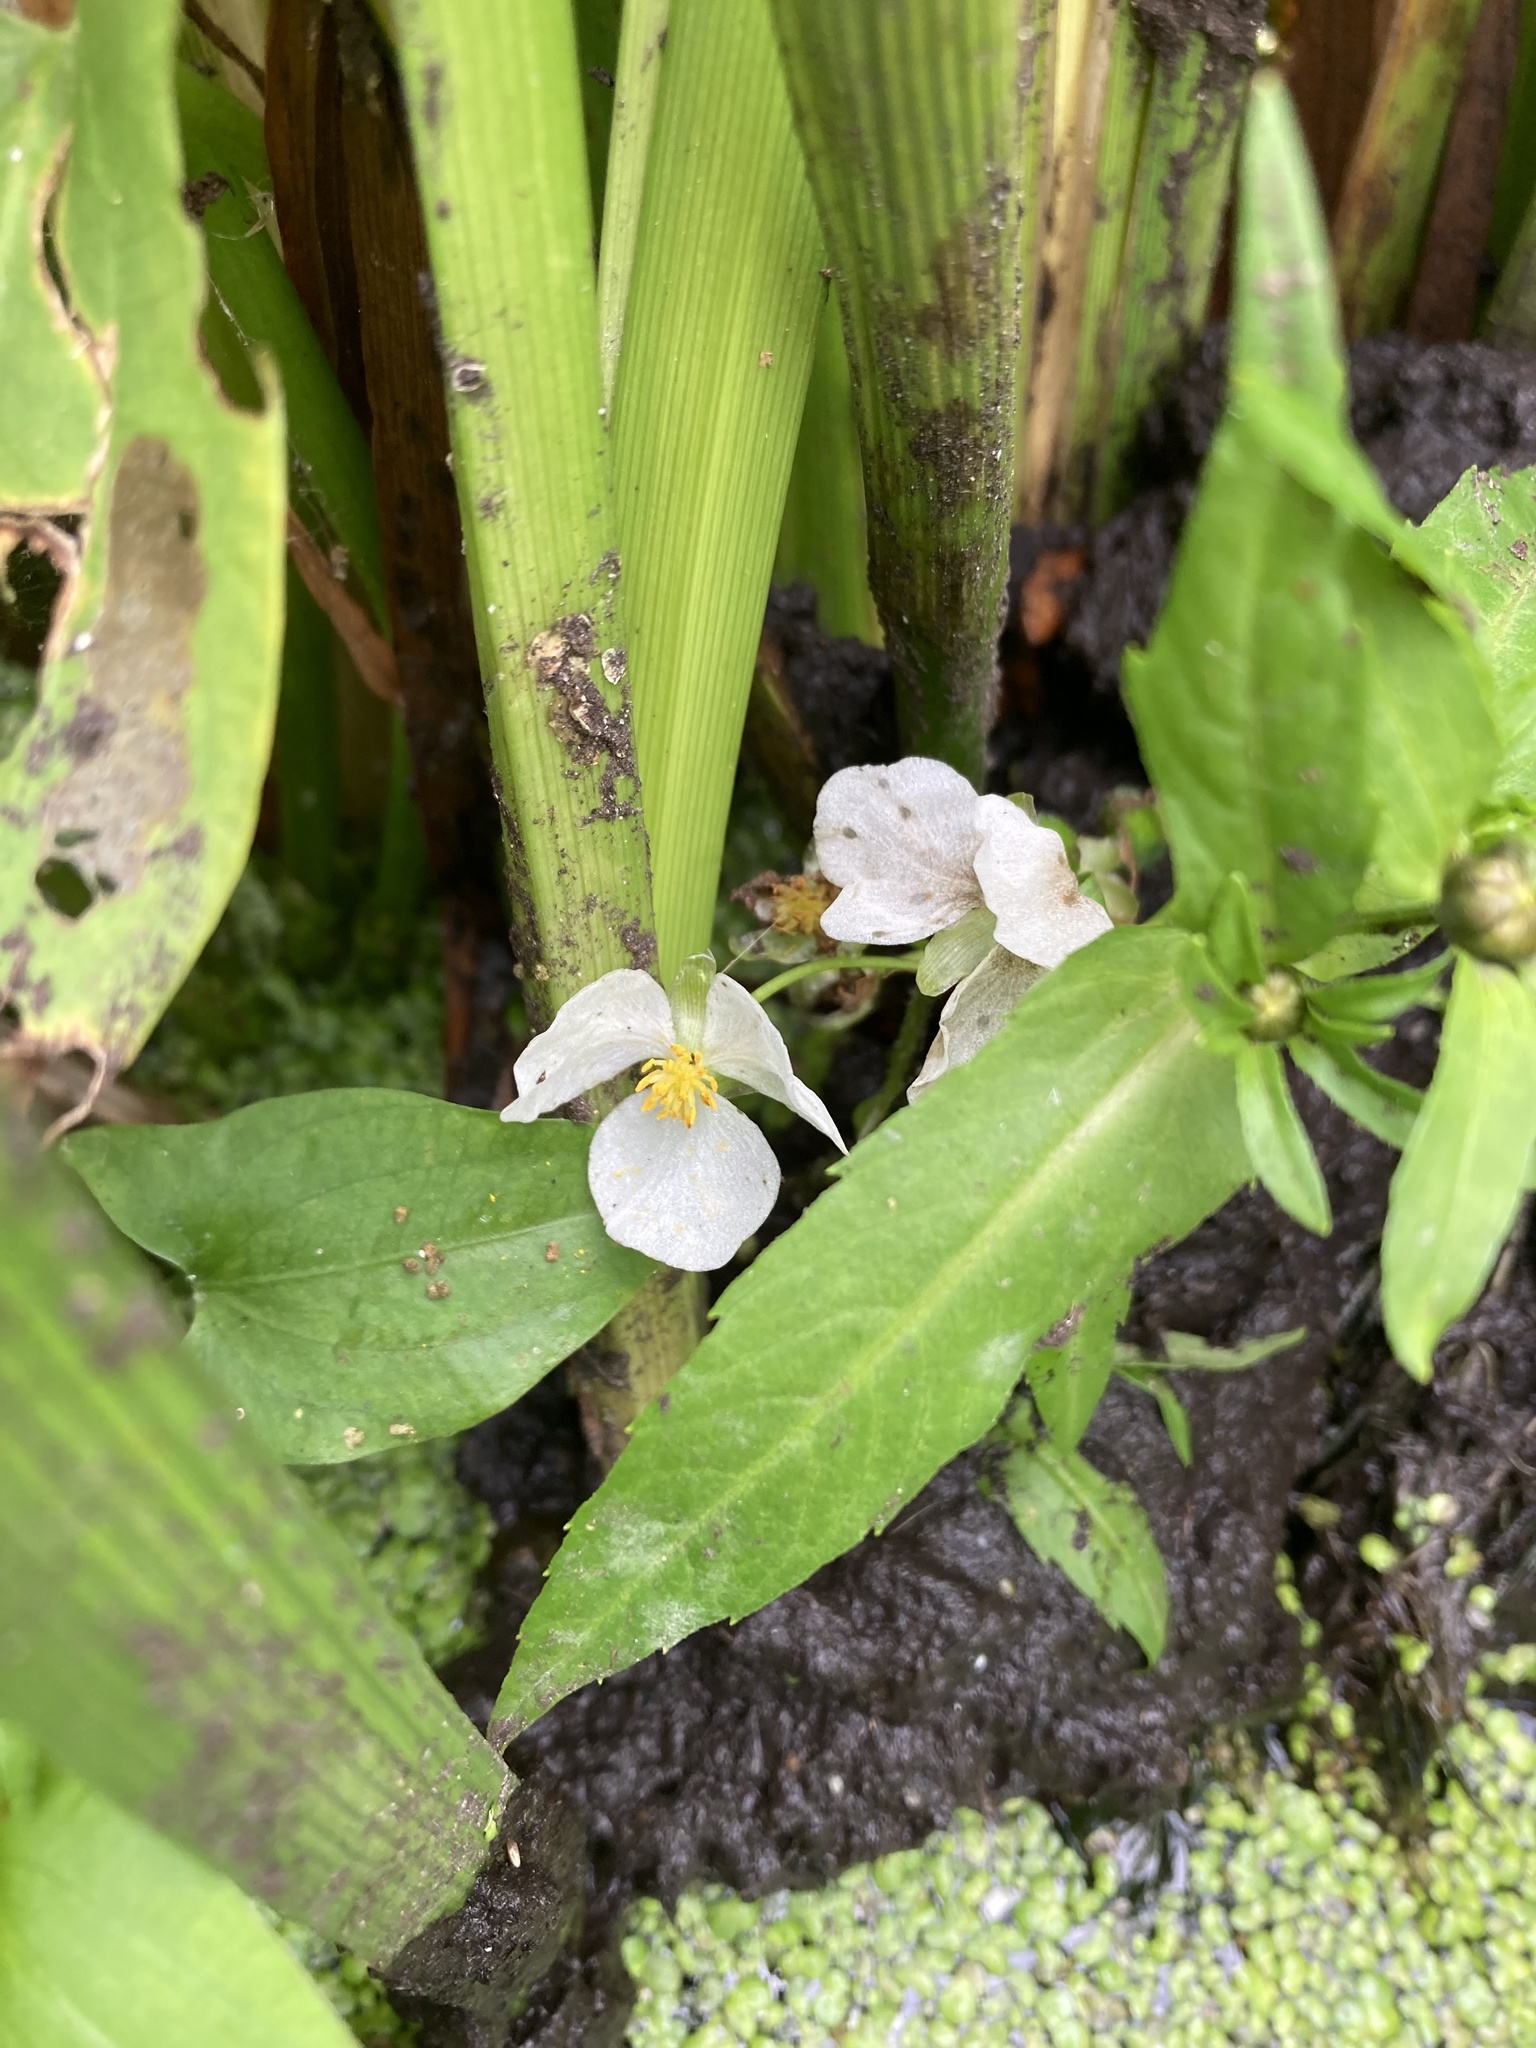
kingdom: Plantae
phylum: Tracheophyta
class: Liliopsida
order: Alismatales
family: Alismataceae
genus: Sagittaria
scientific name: Sagittaria cuneata
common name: Northern arrowhead
